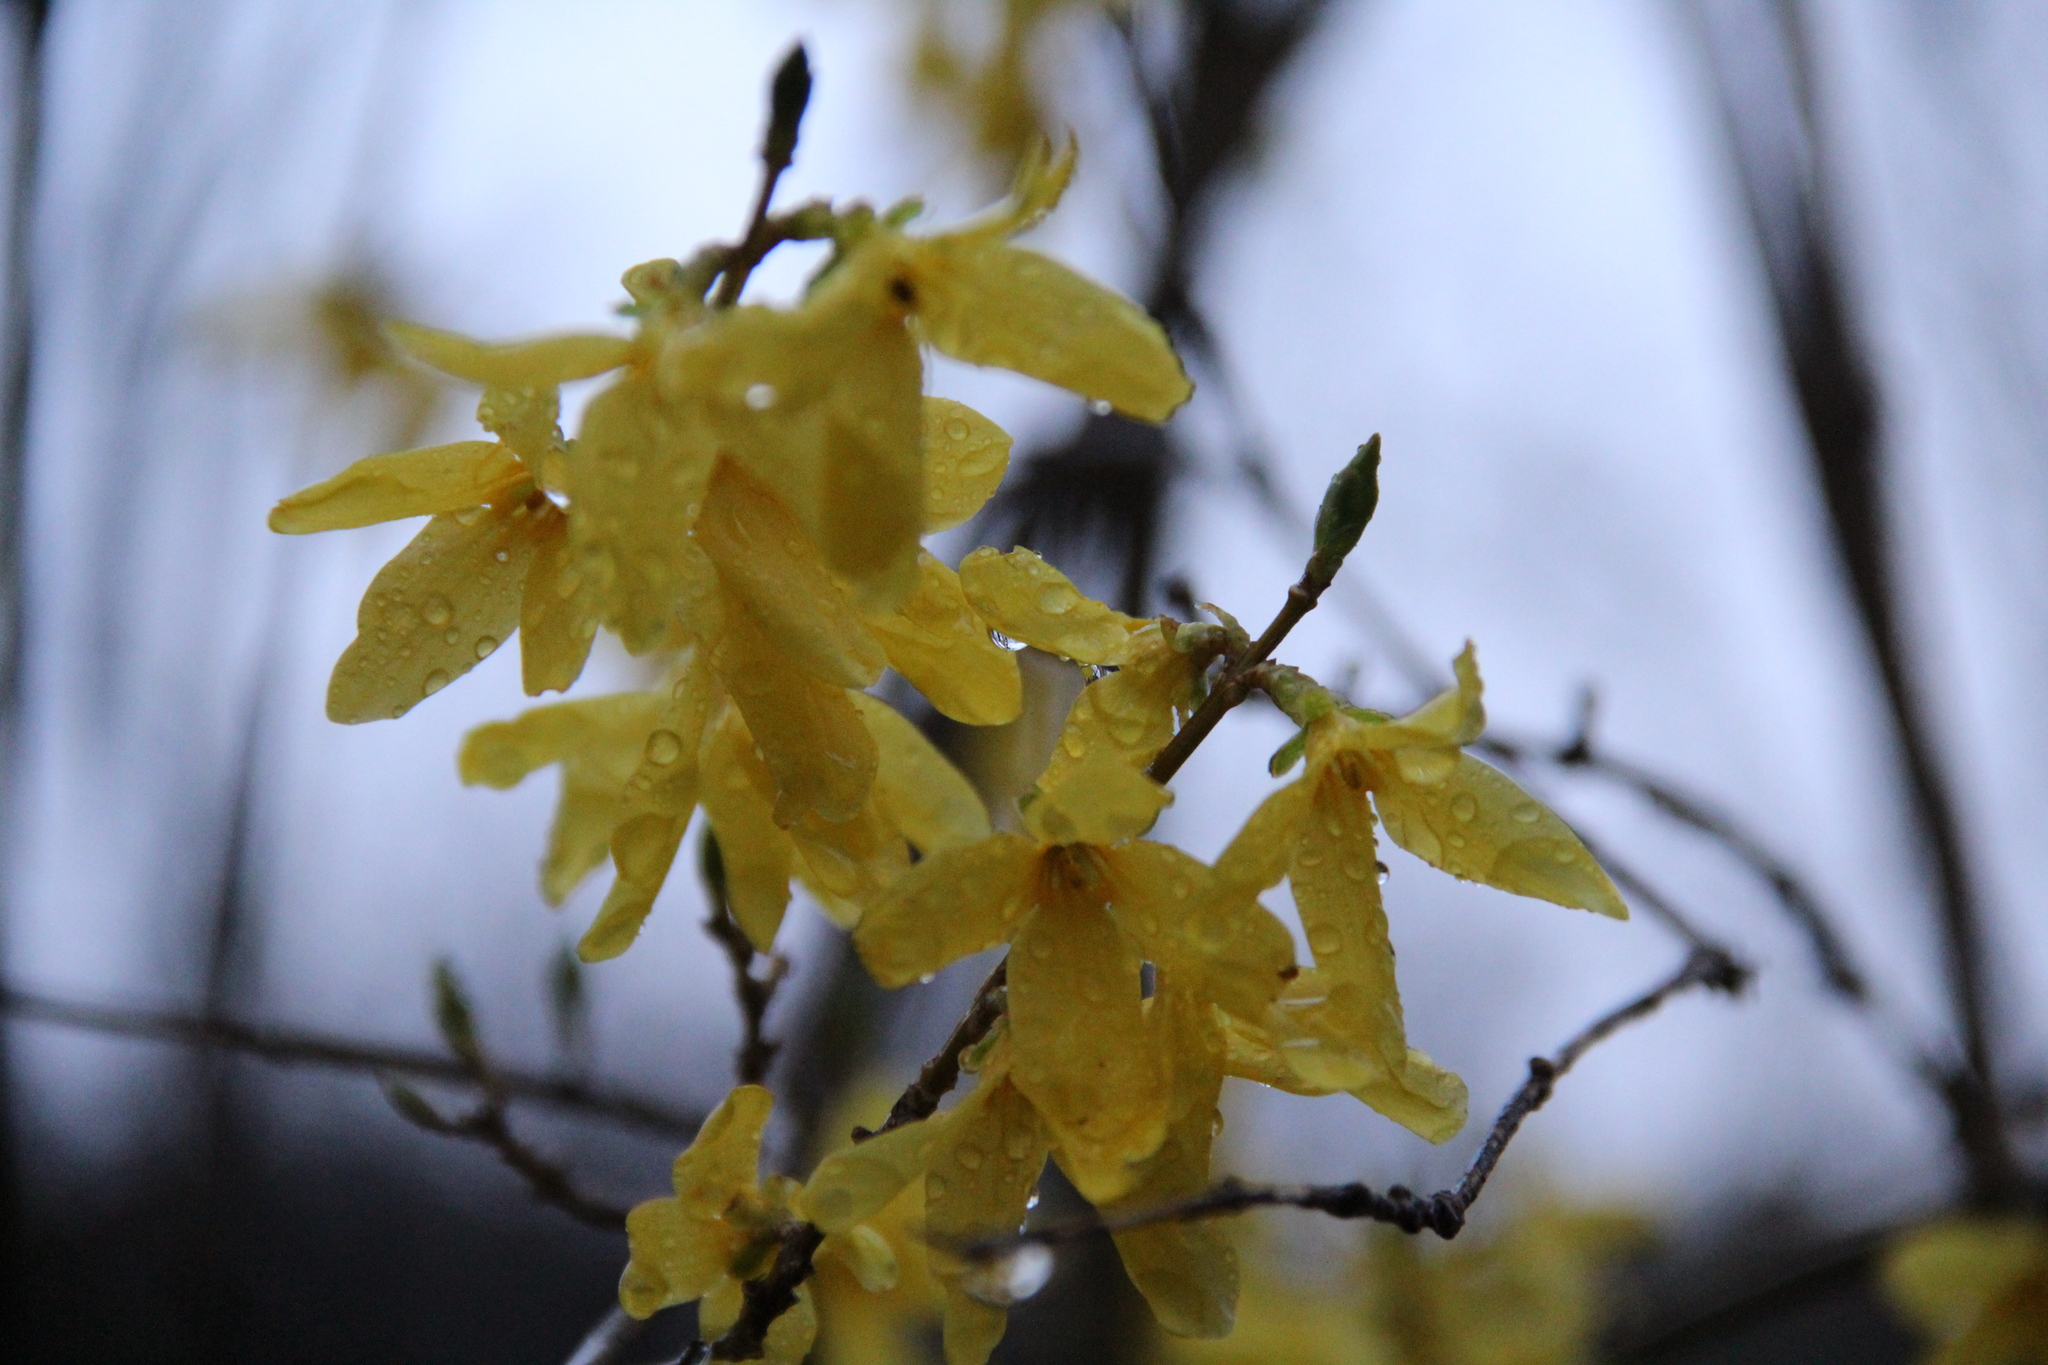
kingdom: Plantae
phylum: Tracheophyta
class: Magnoliopsida
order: Lamiales
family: Oleaceae
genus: Forsythia
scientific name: Forsythia
